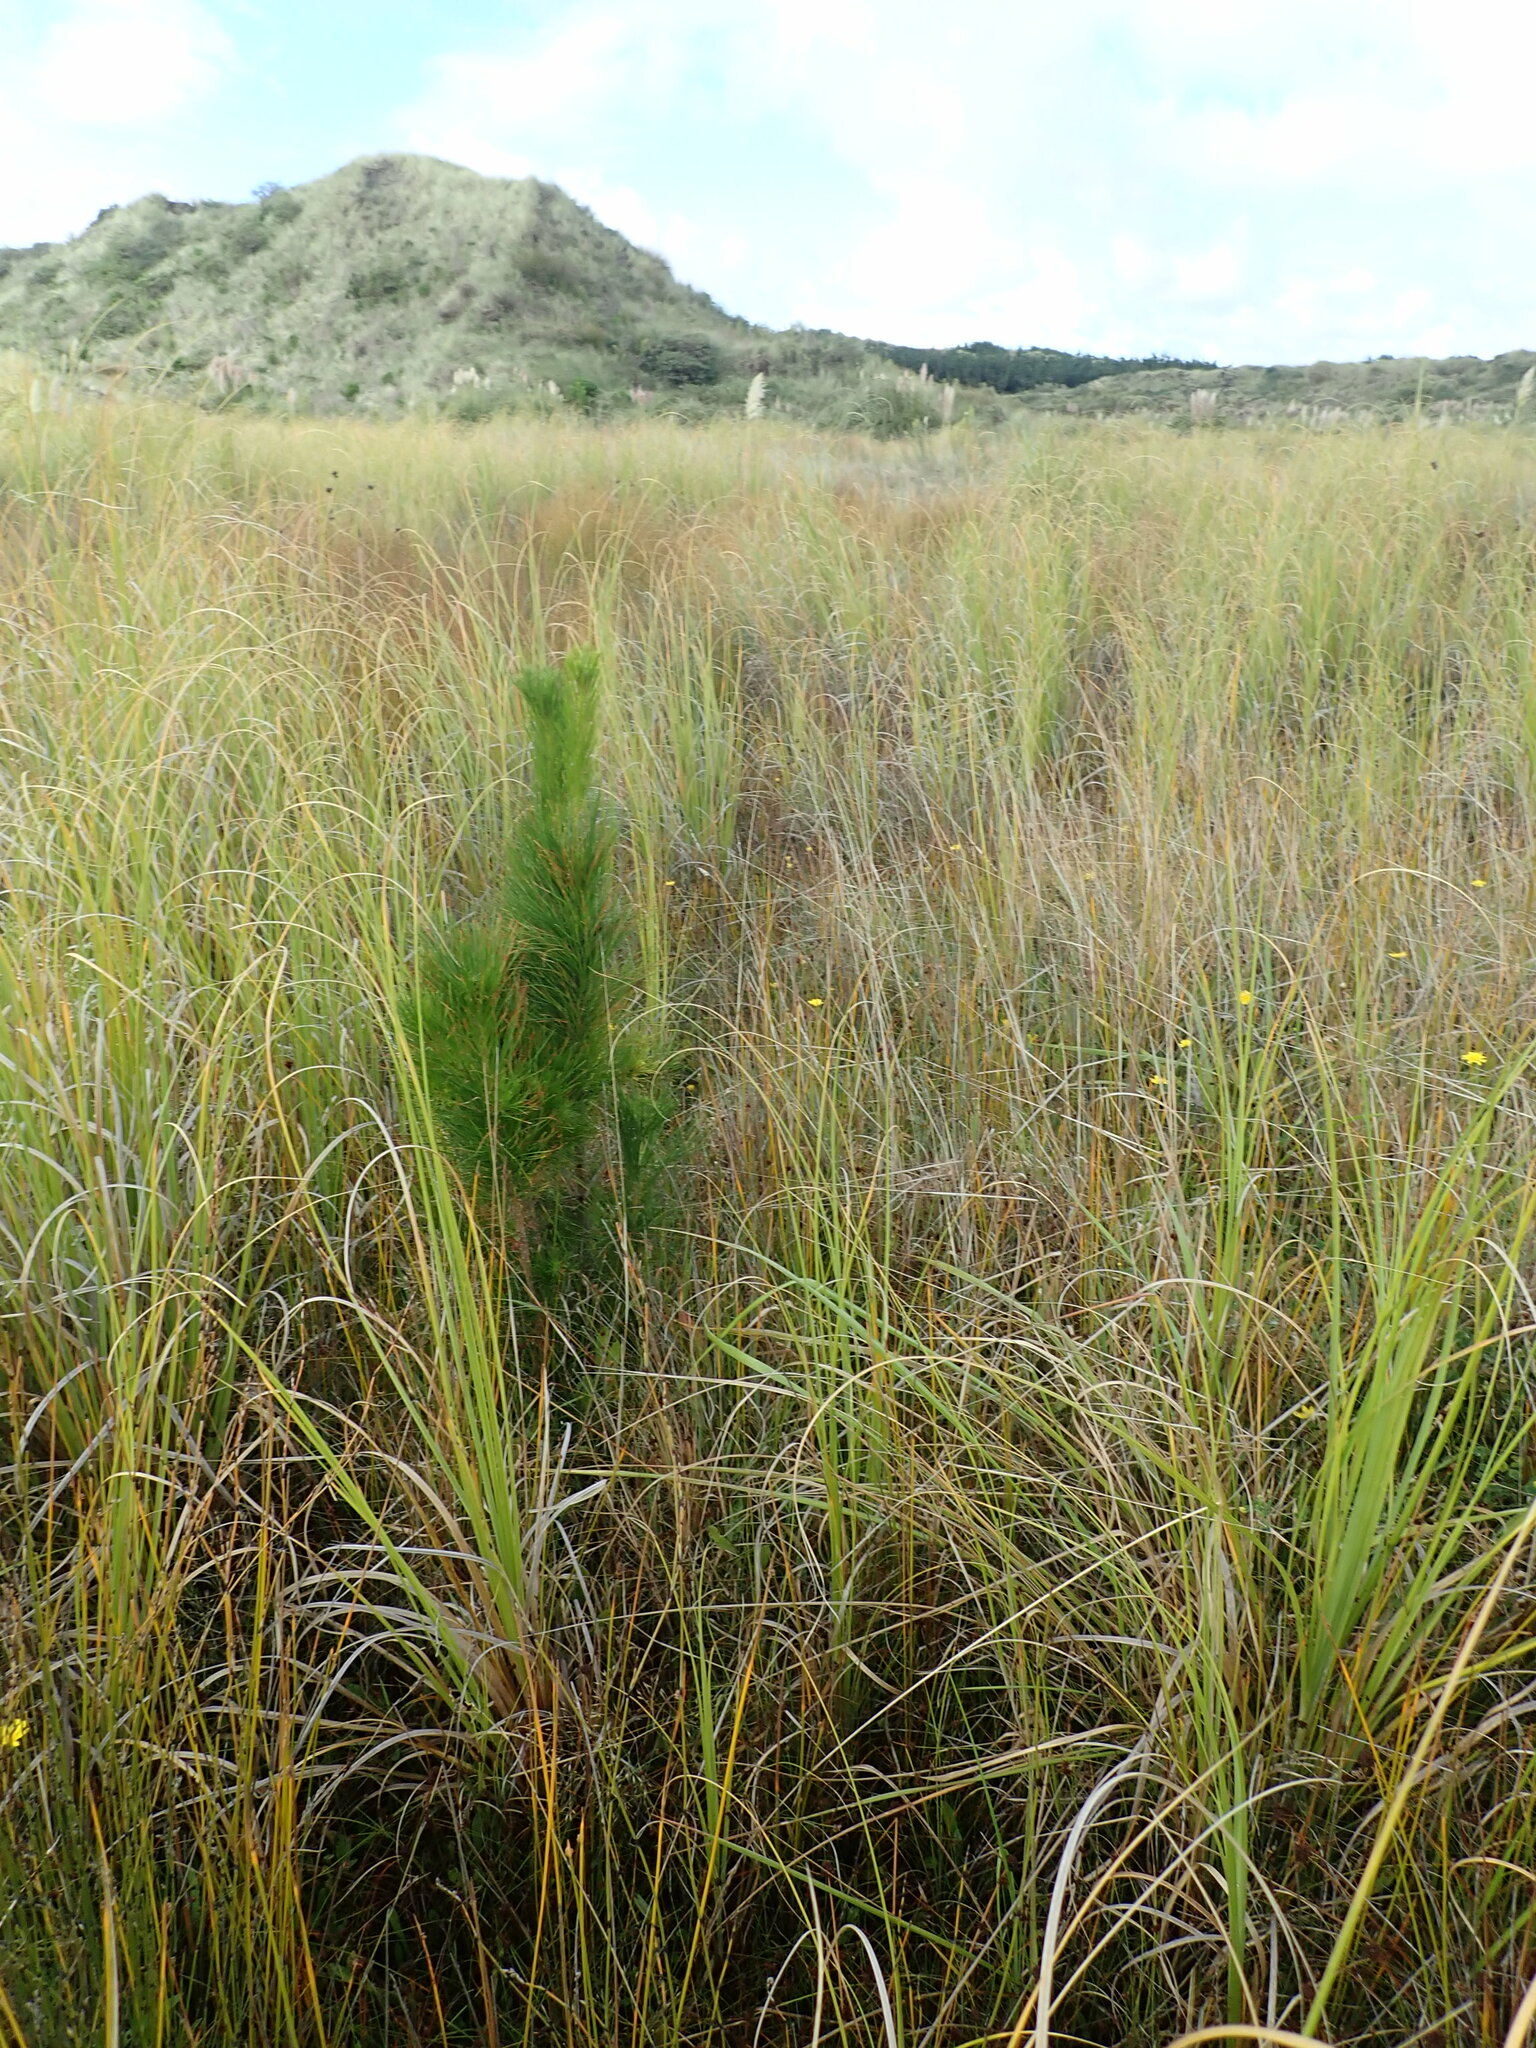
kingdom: Plantae
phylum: Tracheophyta
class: Pinopsida
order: Pinales
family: Pinaceae
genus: Pinus
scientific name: Pinus radiata
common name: Monterey pine
